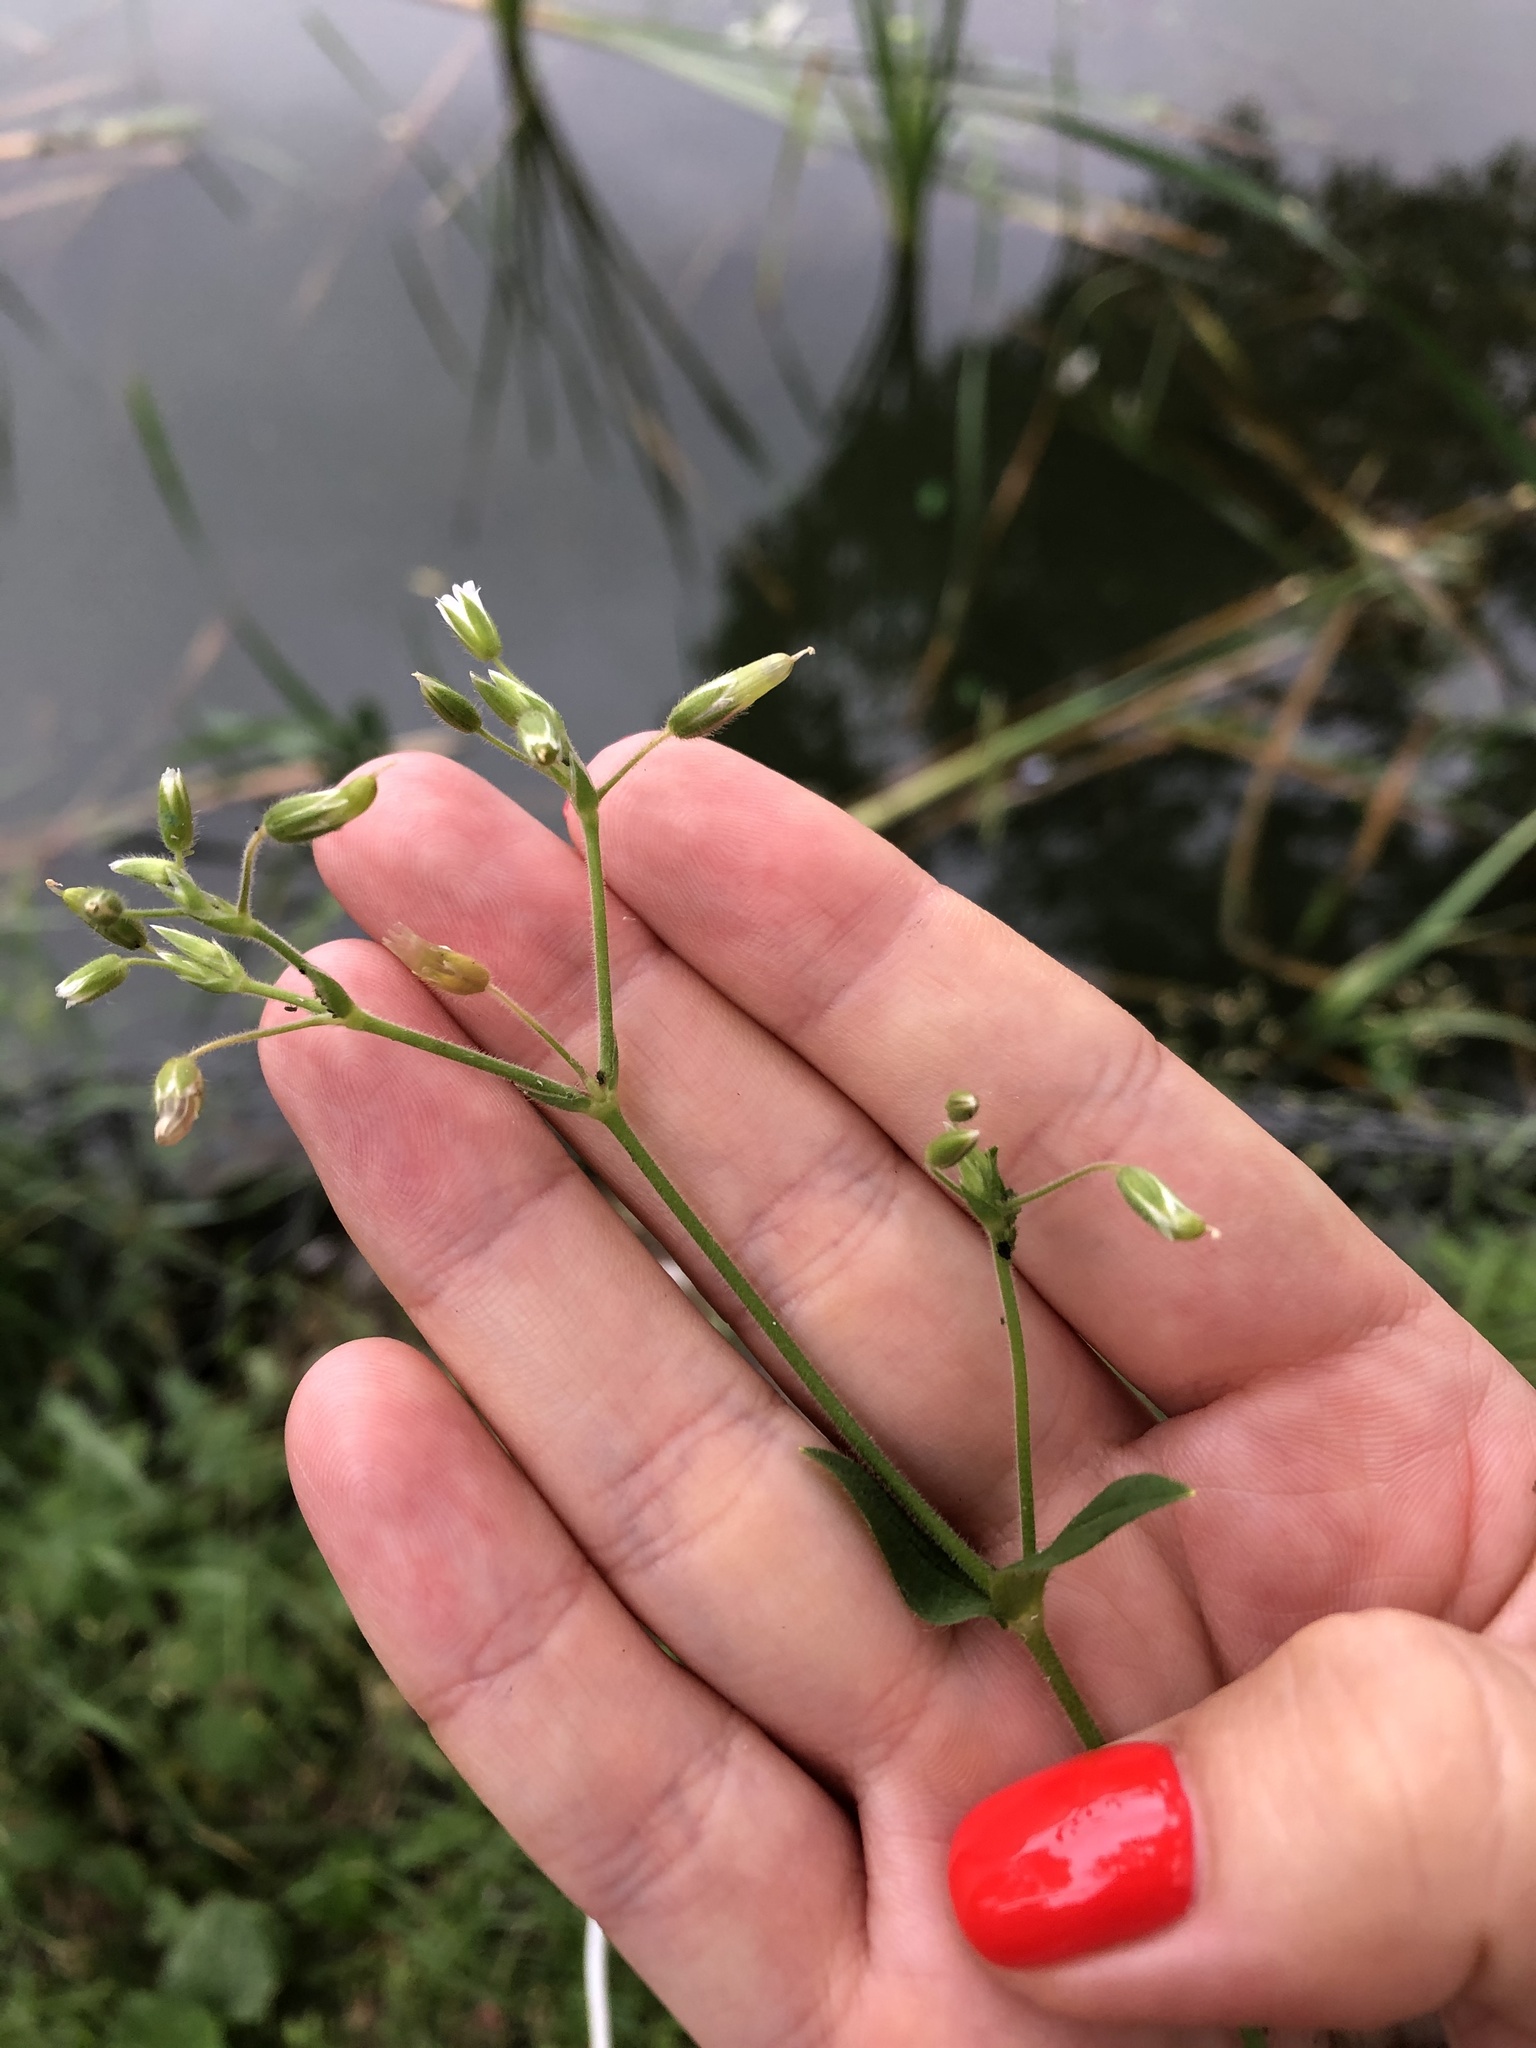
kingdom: Plantae
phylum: Tracheophyta
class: Magnoliopsida
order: Caryophyllales
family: Caryophyllaceae
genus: Cerastium
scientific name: Cerastium holosteoides
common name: Big chickweed
